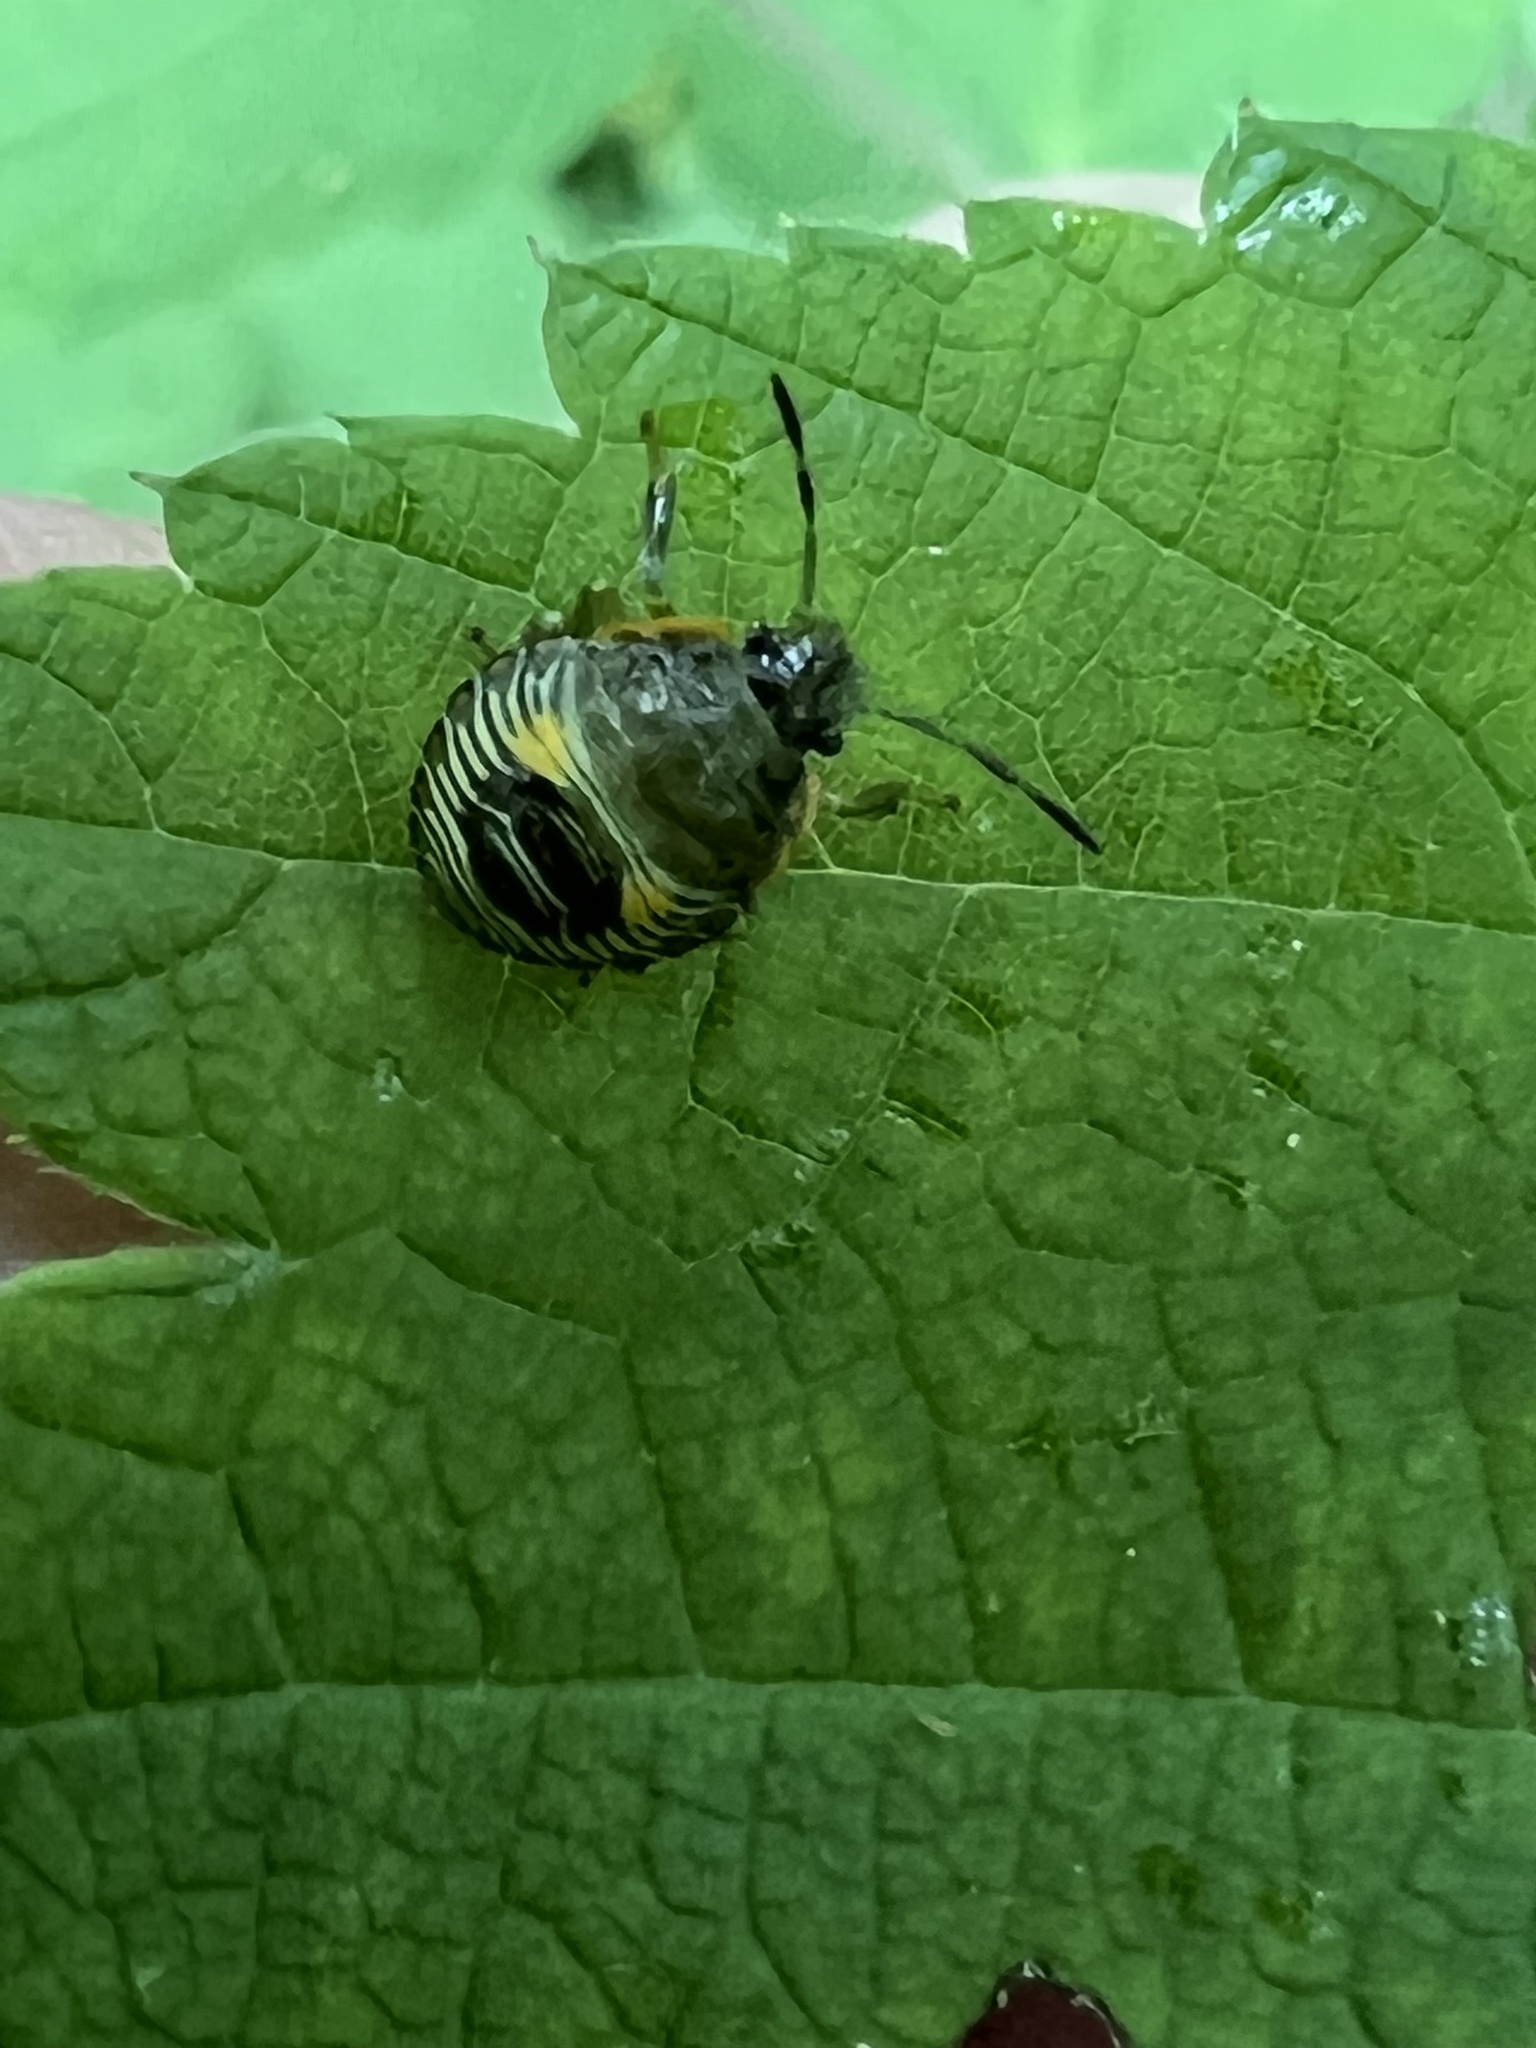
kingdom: Animalia
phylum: Arthropoda
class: Insecta
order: Hemiptera
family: Pentatomidae
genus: Chinavia
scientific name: Chinavia hilaris
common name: Green stink bug
